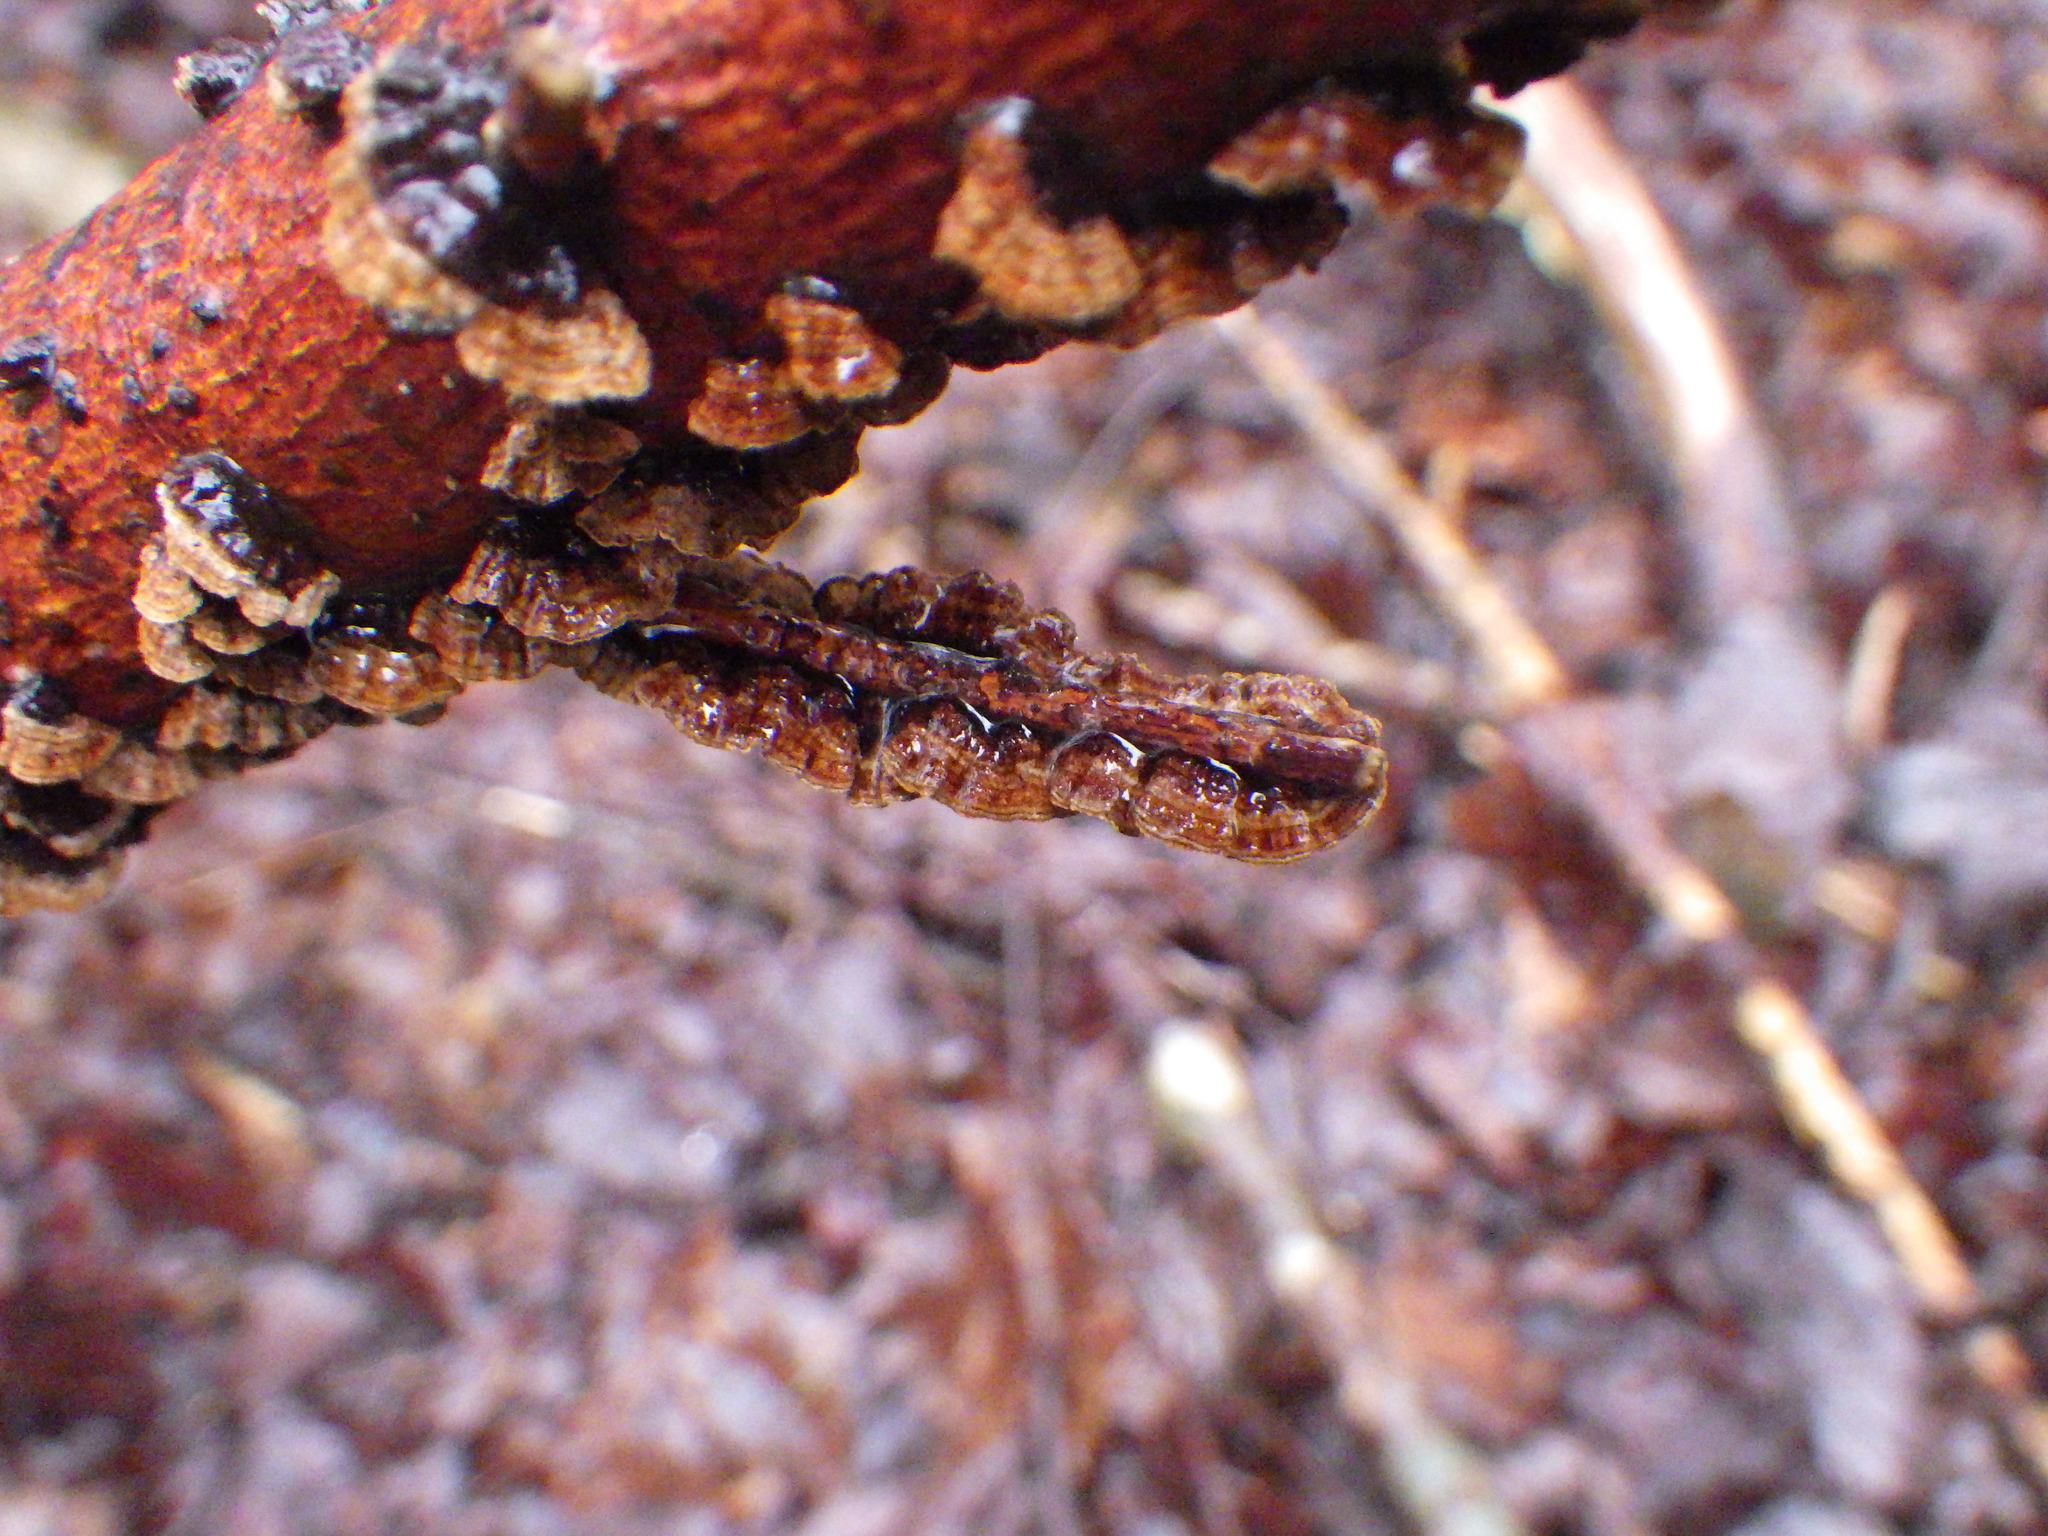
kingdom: Fungi
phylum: Basidiomycota
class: Agaricomycetes
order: Hymenochaetales
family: Hymenochaetaceae
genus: Hydnoporia
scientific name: Hydnoporia tabacina
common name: Willow glue
